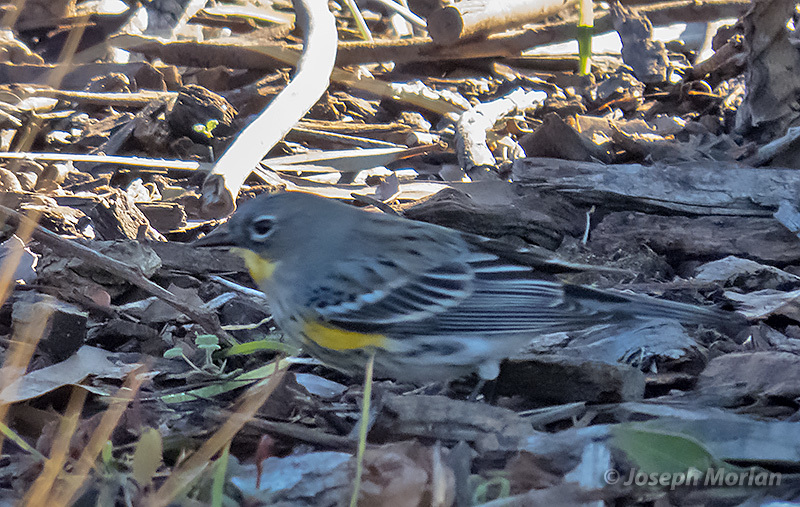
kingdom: Animalia
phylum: Chordata
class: Aves
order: Passeriformes
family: Parulidae
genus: Setophaga
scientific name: Setophaga coronata
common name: Myrtle warbler
